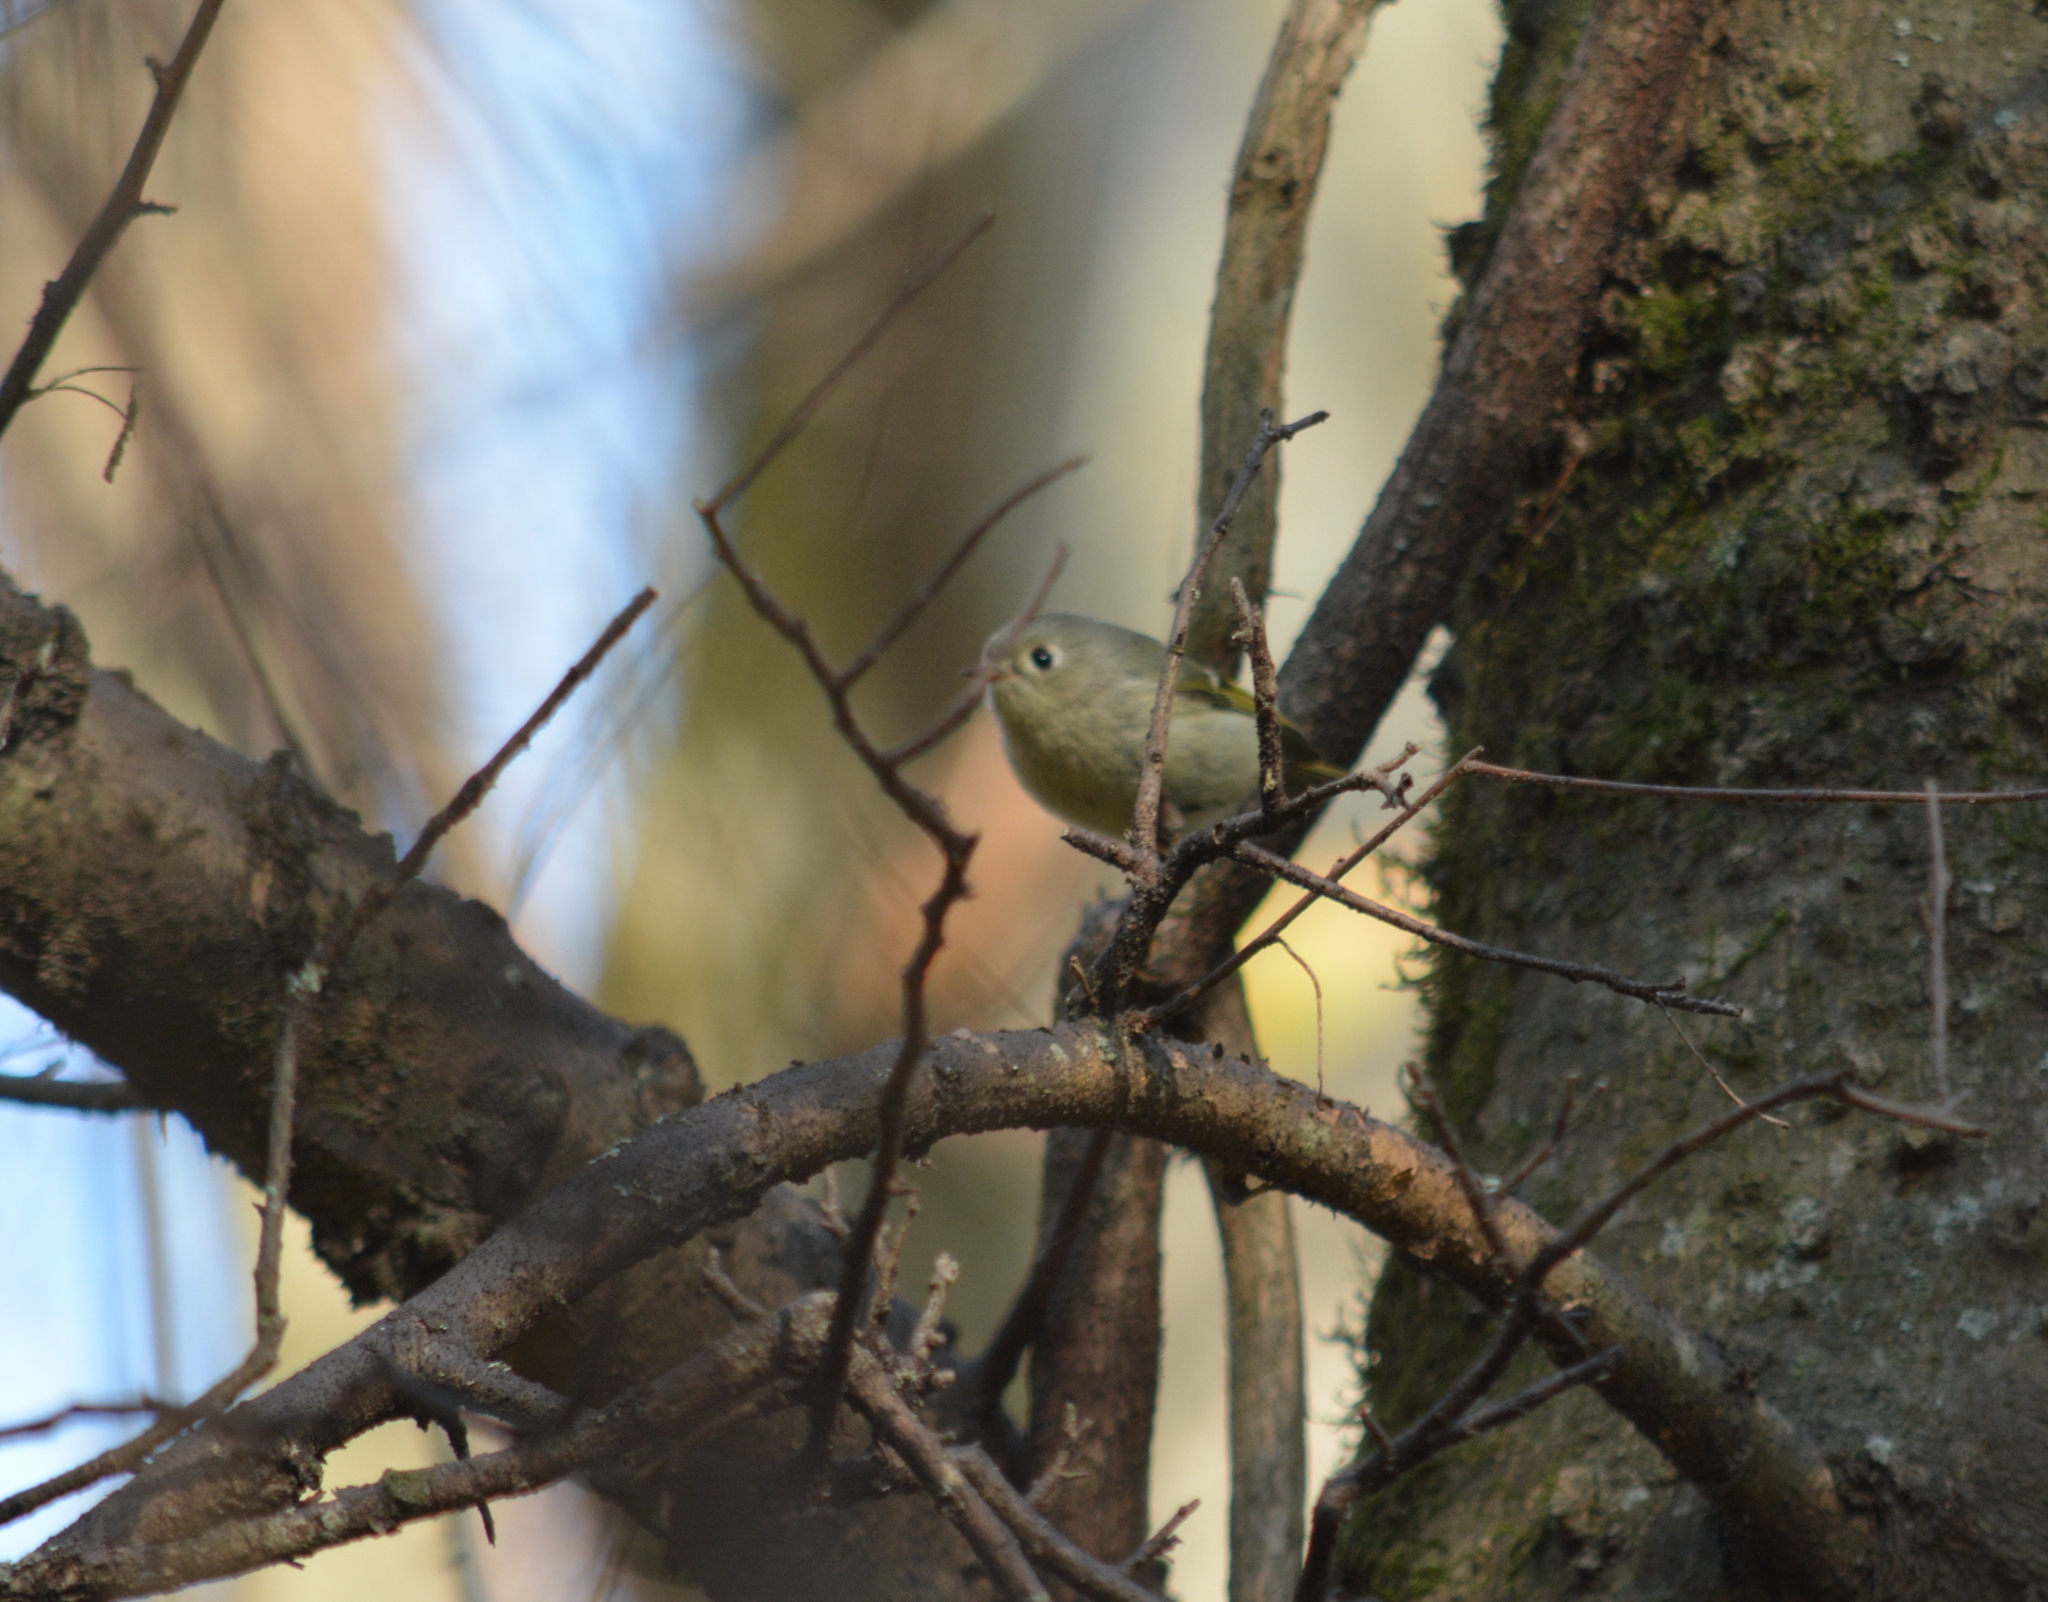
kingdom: Animalia
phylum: Chordata
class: Aves
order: Passeriformes
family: Regulidae
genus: Regulus
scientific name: Regulus calendula
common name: Ruby-crowned kinglet
